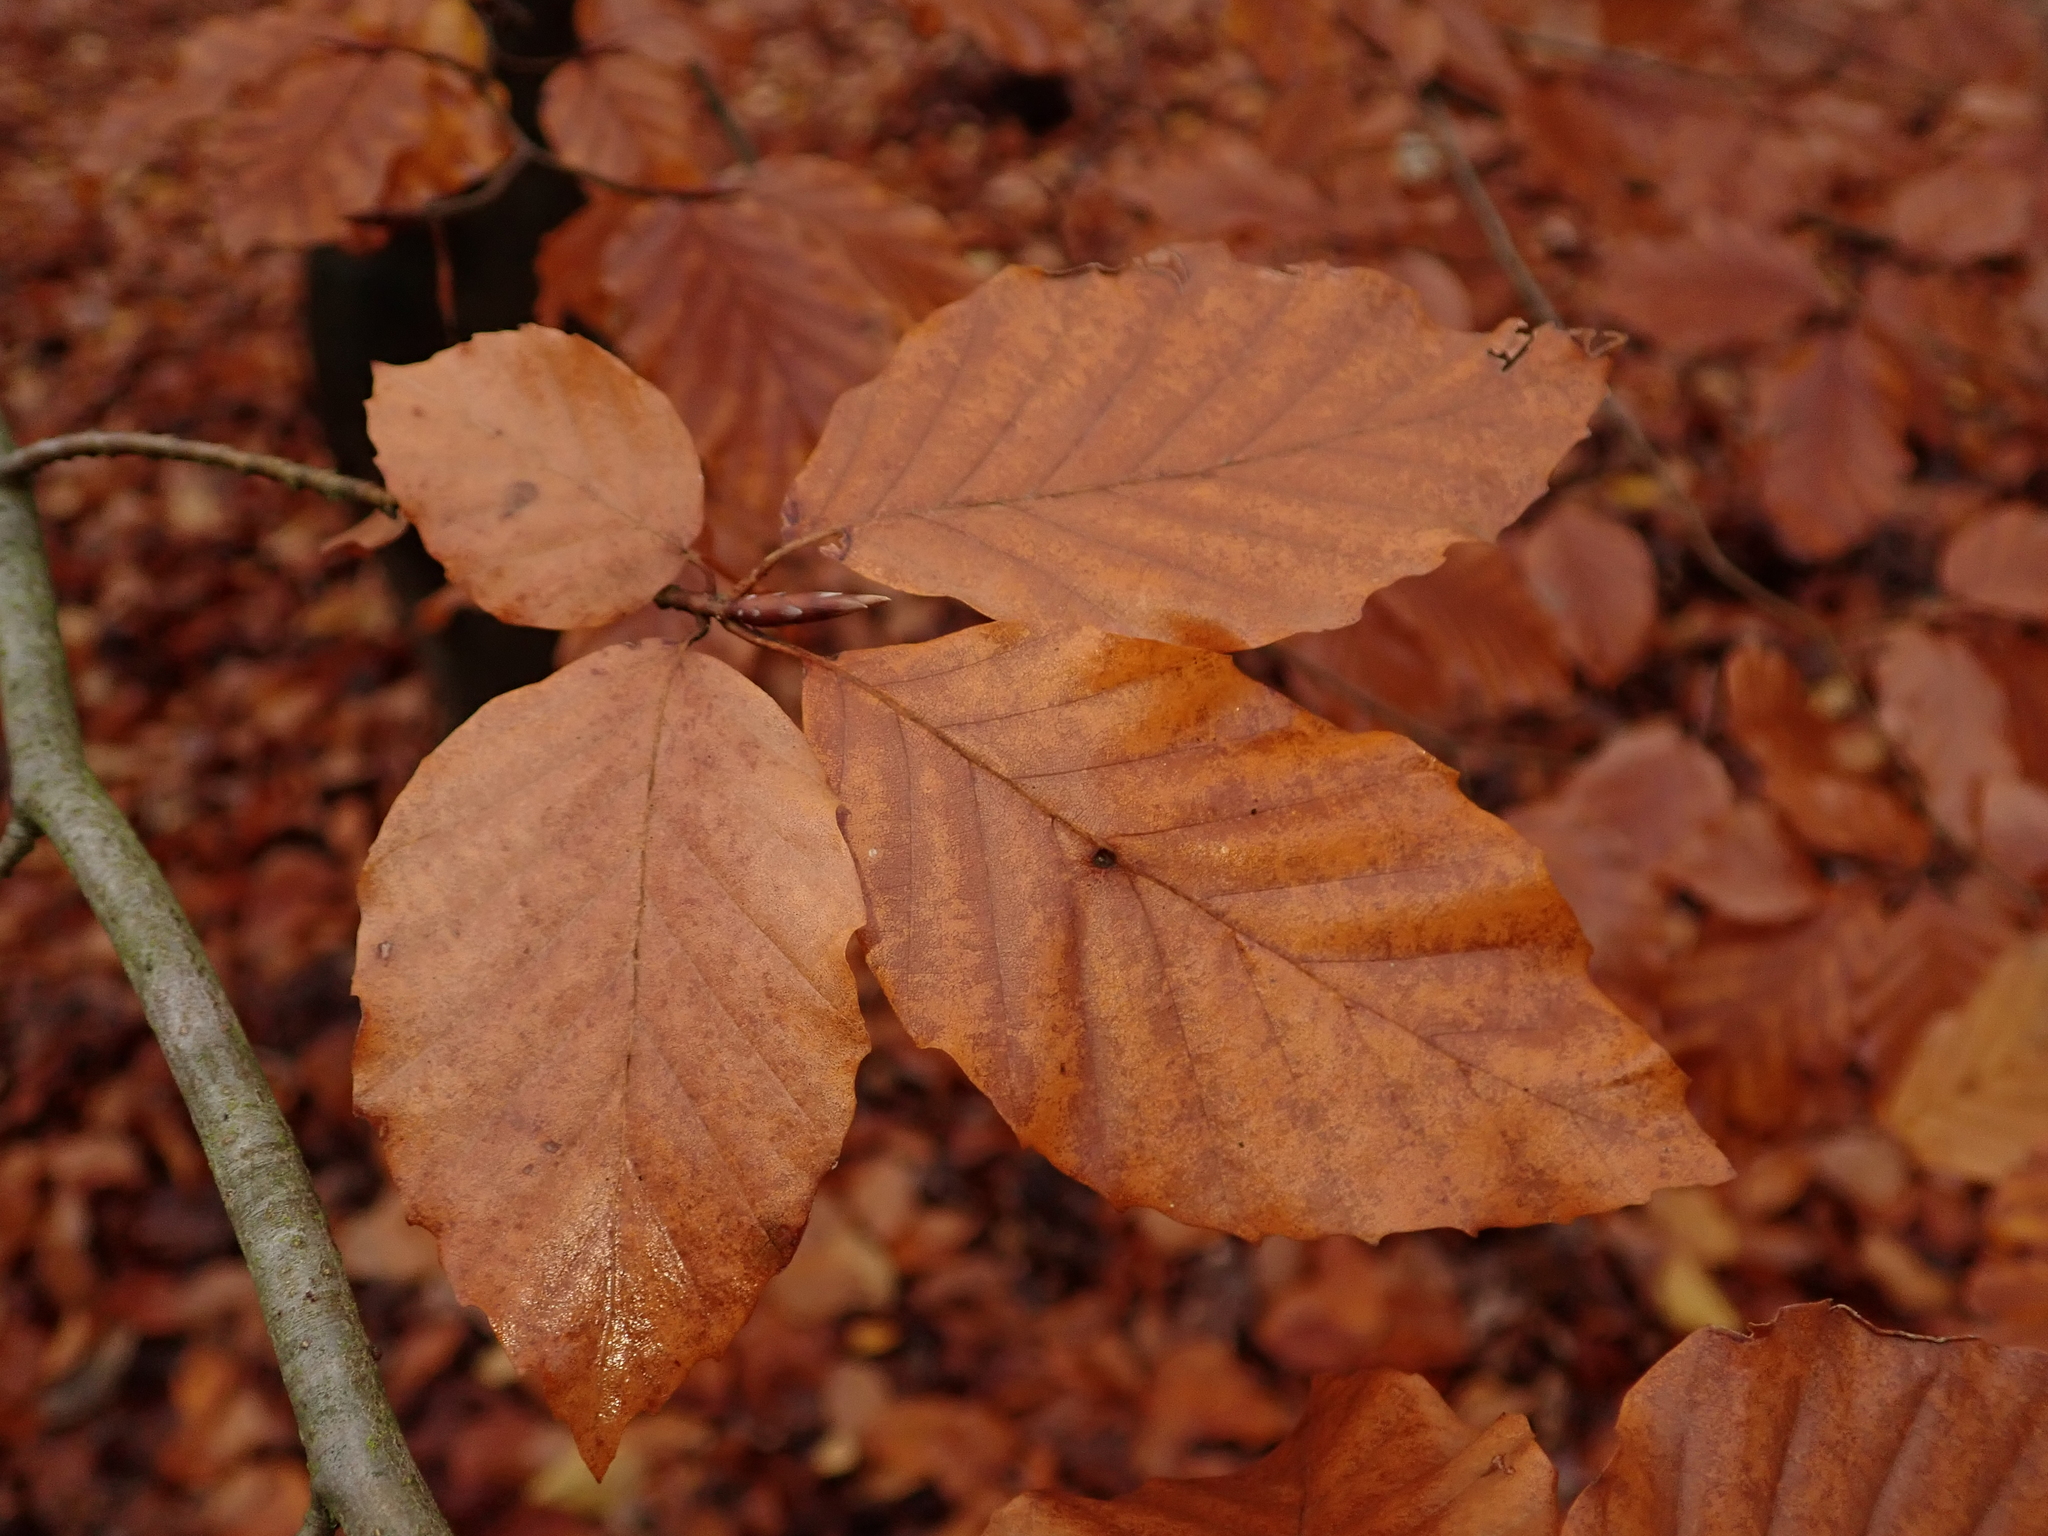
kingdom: Plantae
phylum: Tracheophyta
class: Magnoliopsida
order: Fagales
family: Fagaceae
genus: Fagus
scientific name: Fagus sylvatica
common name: Beech
